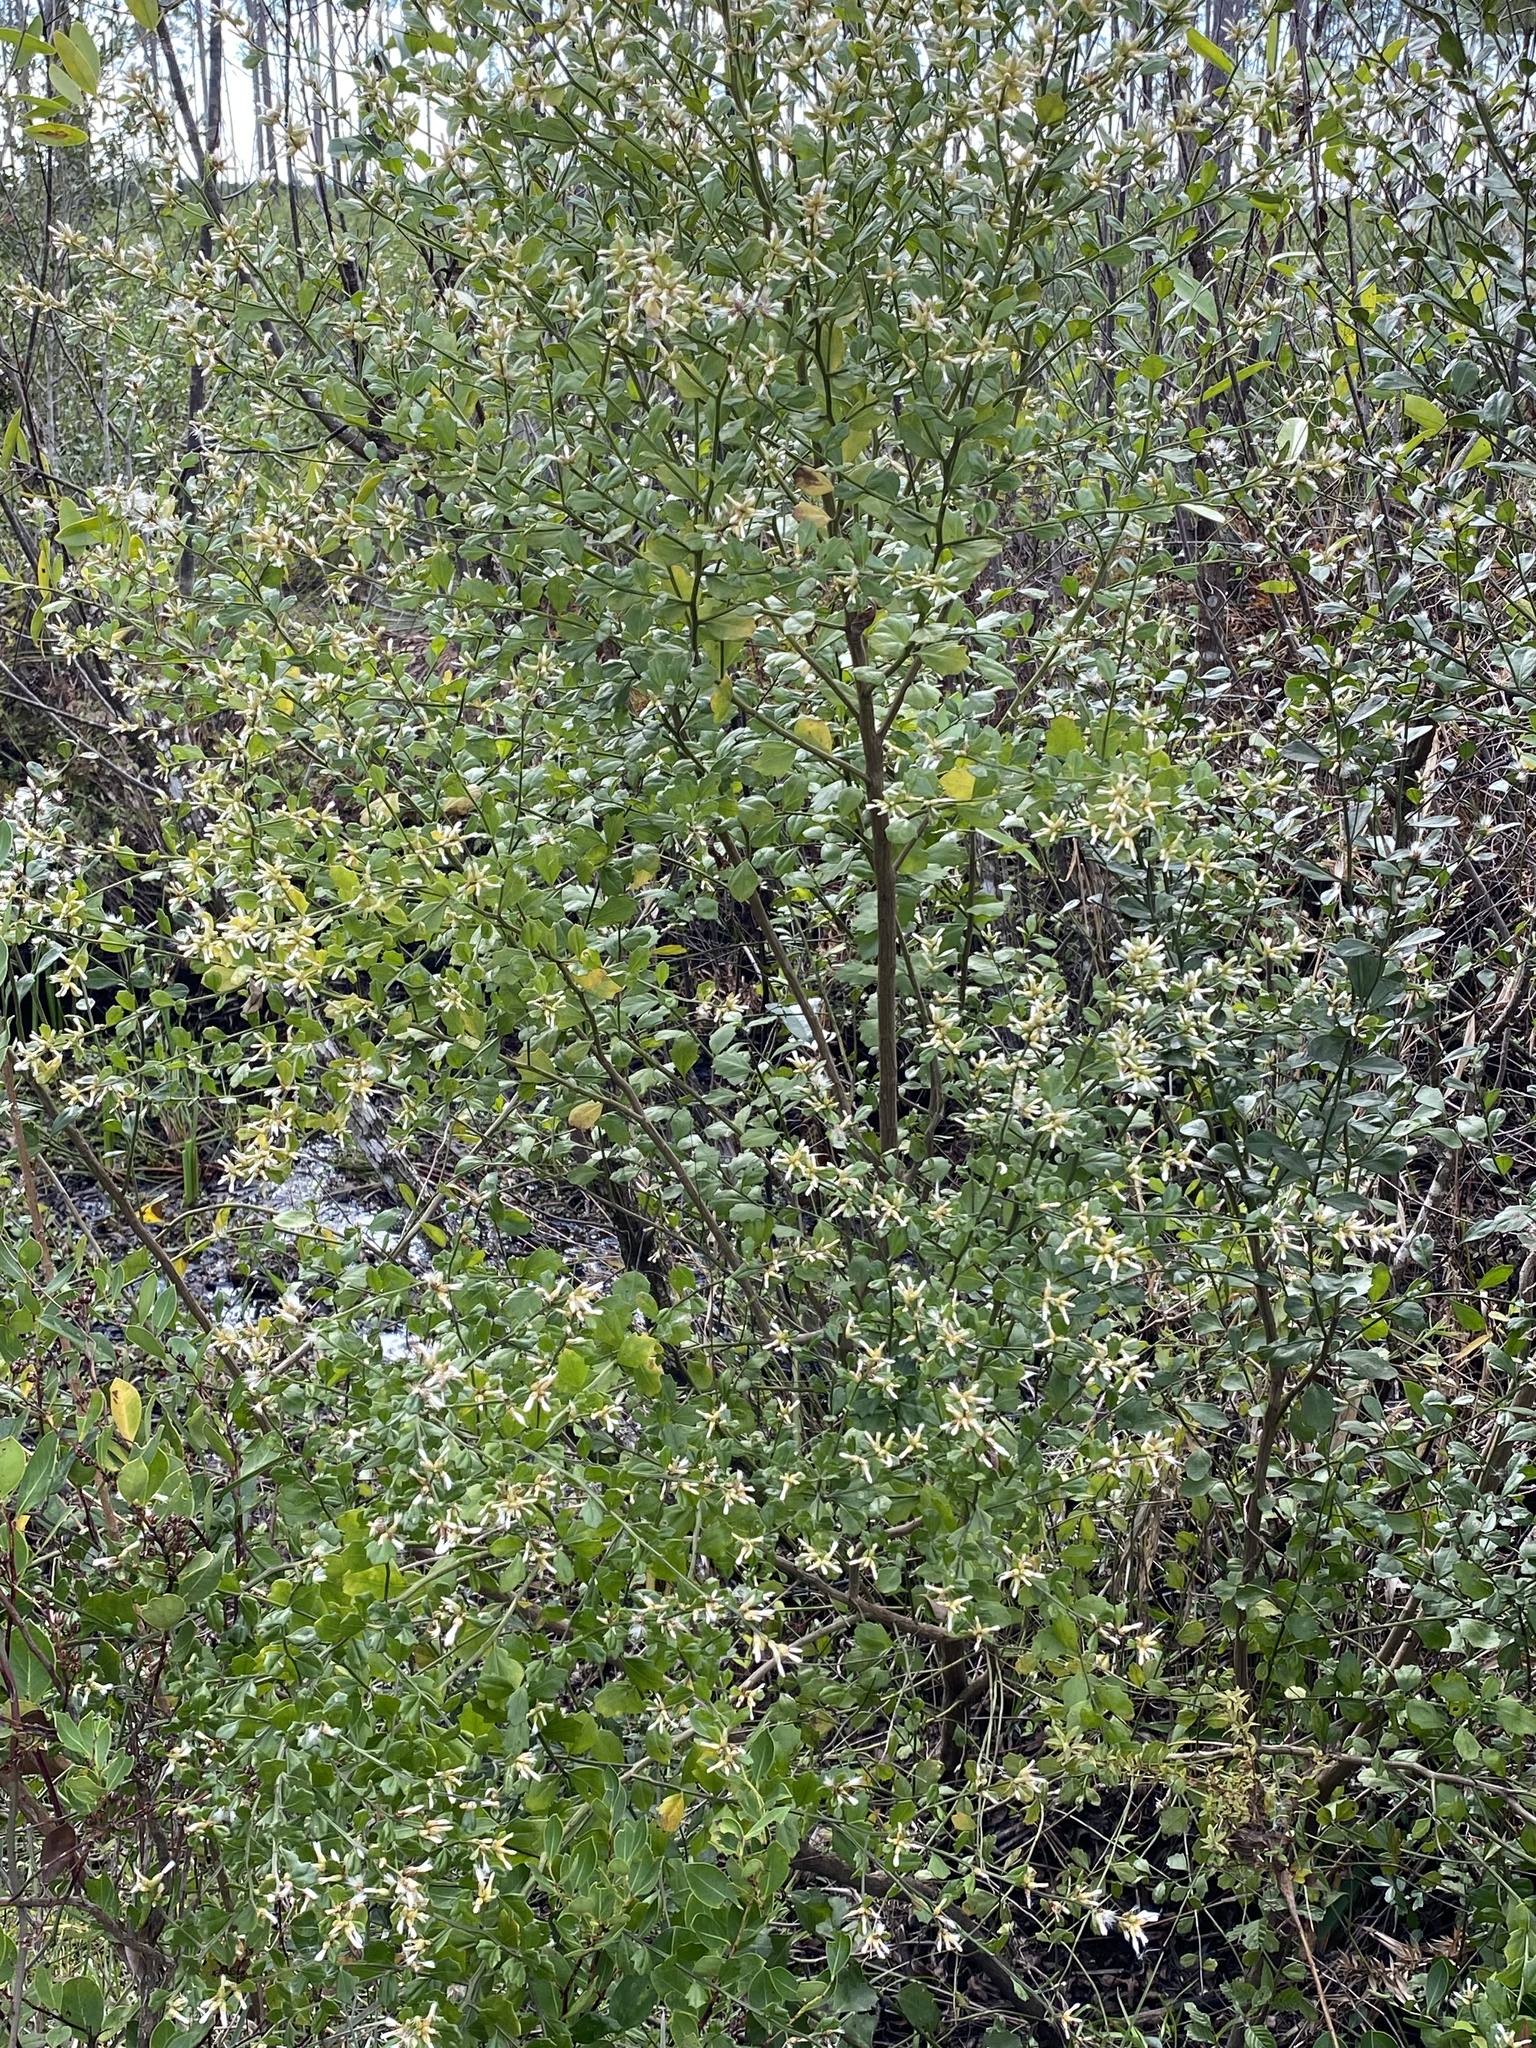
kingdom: Plantae
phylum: Tracheophyta
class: Magnoliopsida
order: Asterales
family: Asteraceae
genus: Baccharis
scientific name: Baccharis glomeruliflora
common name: Silverling groundsel bush
